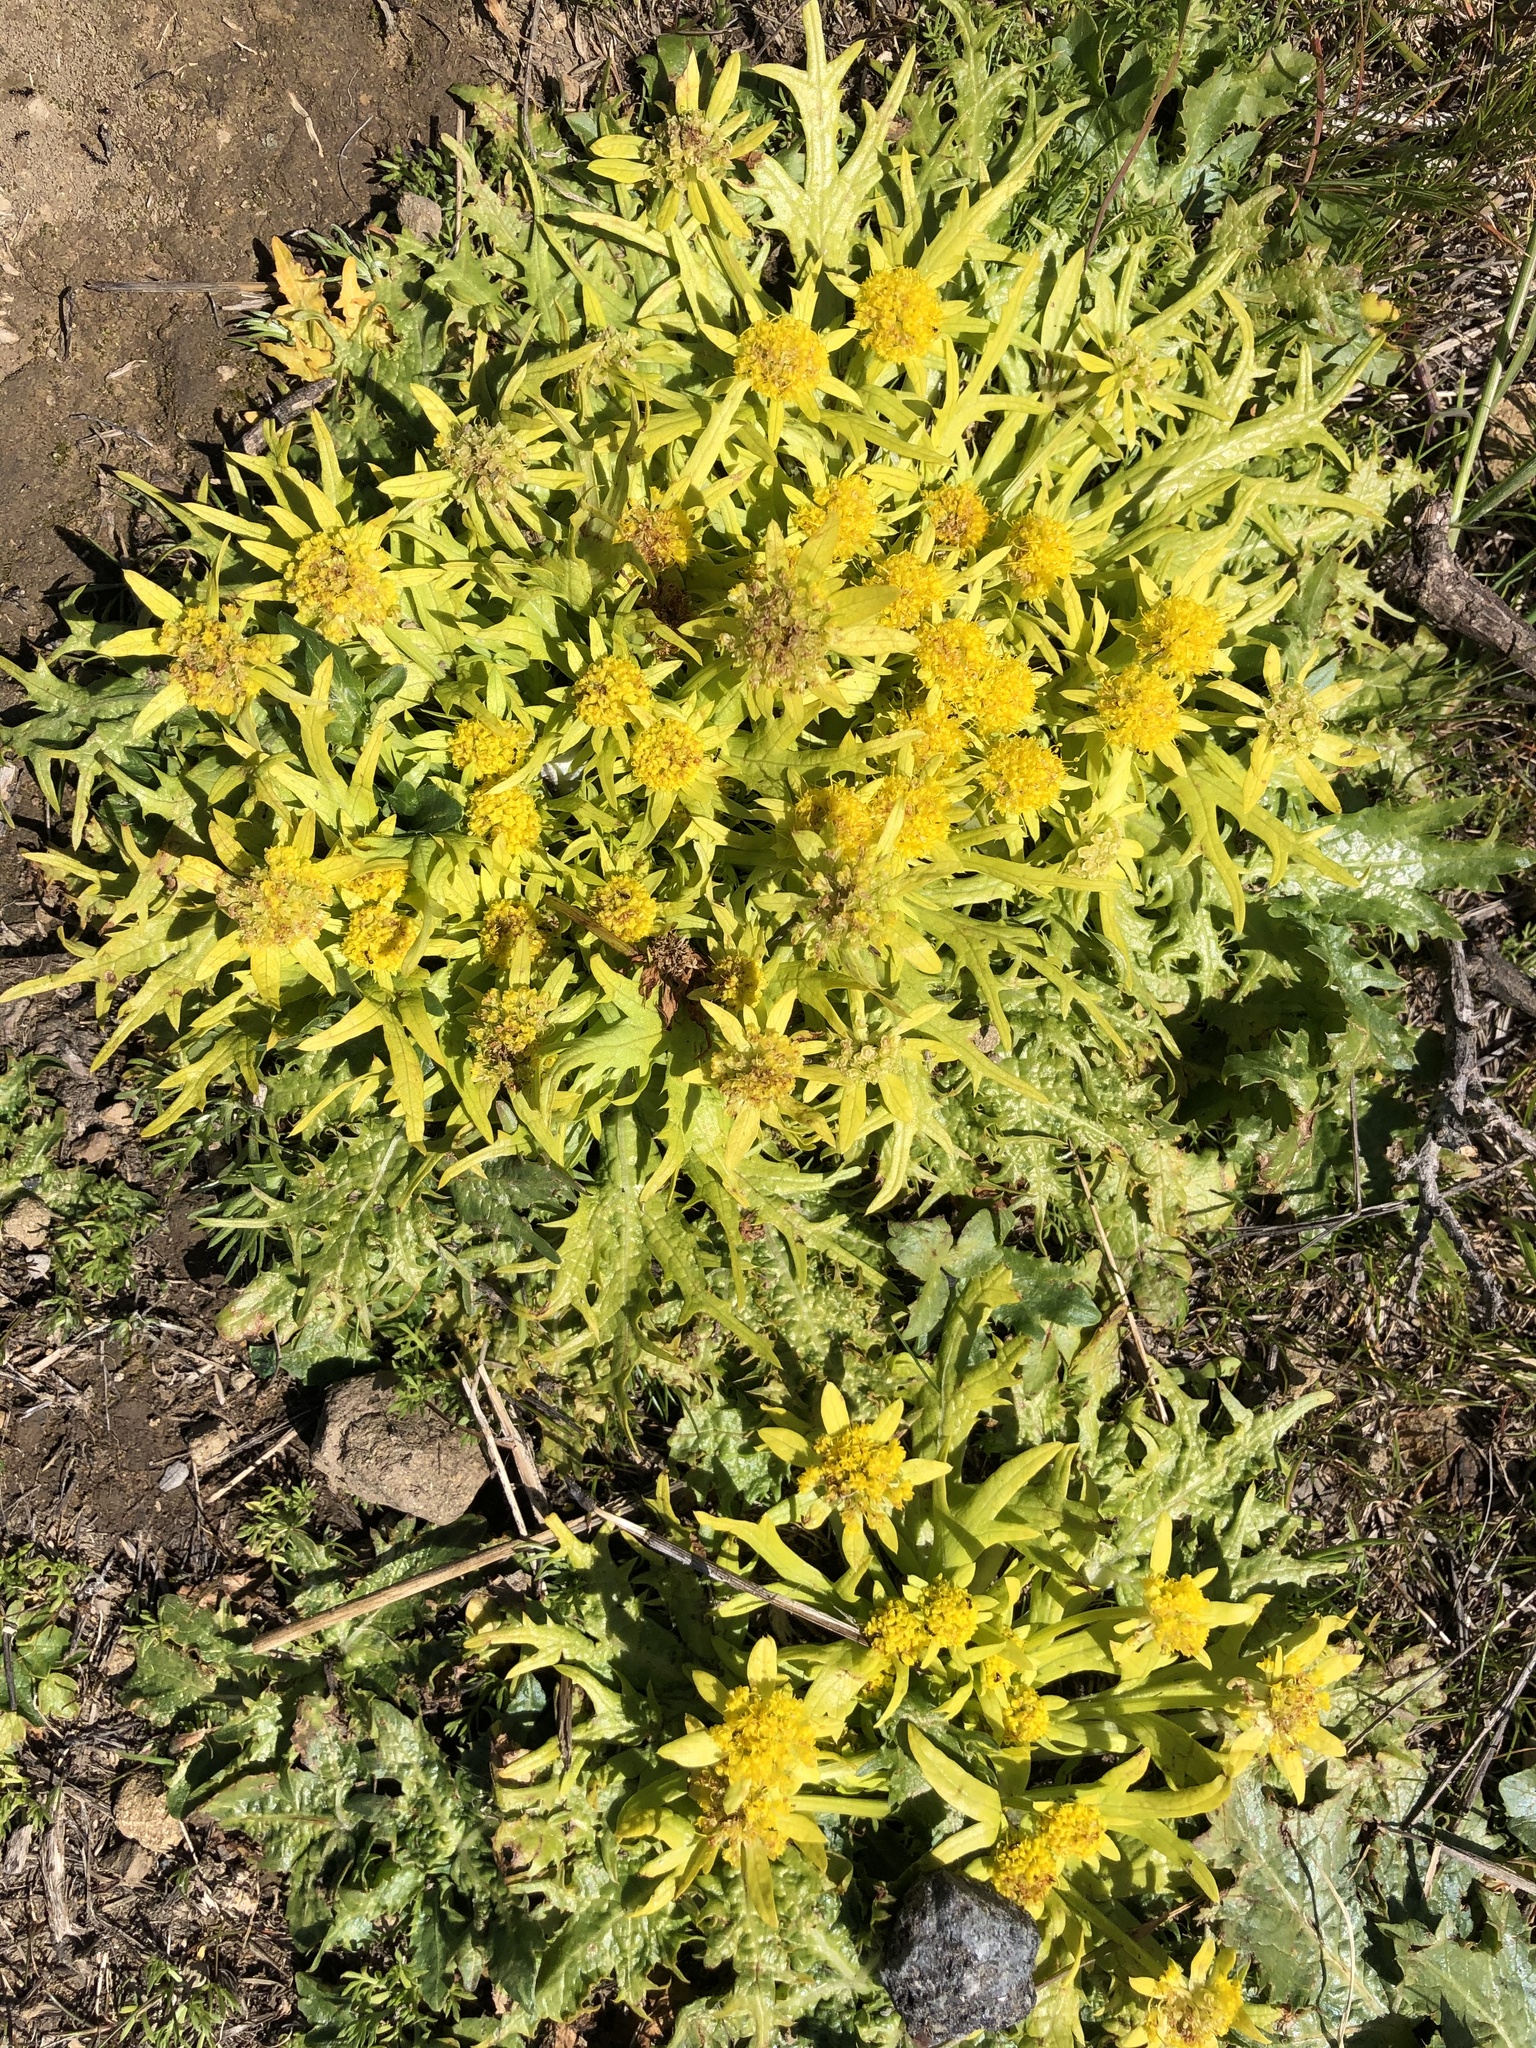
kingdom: Plantae
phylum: Tracheophyta
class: Magnoliopsida
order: Apiales
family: Apiaceae
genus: Sanicula
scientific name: Sanicula arctopoides
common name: Footsteps-of-spring
